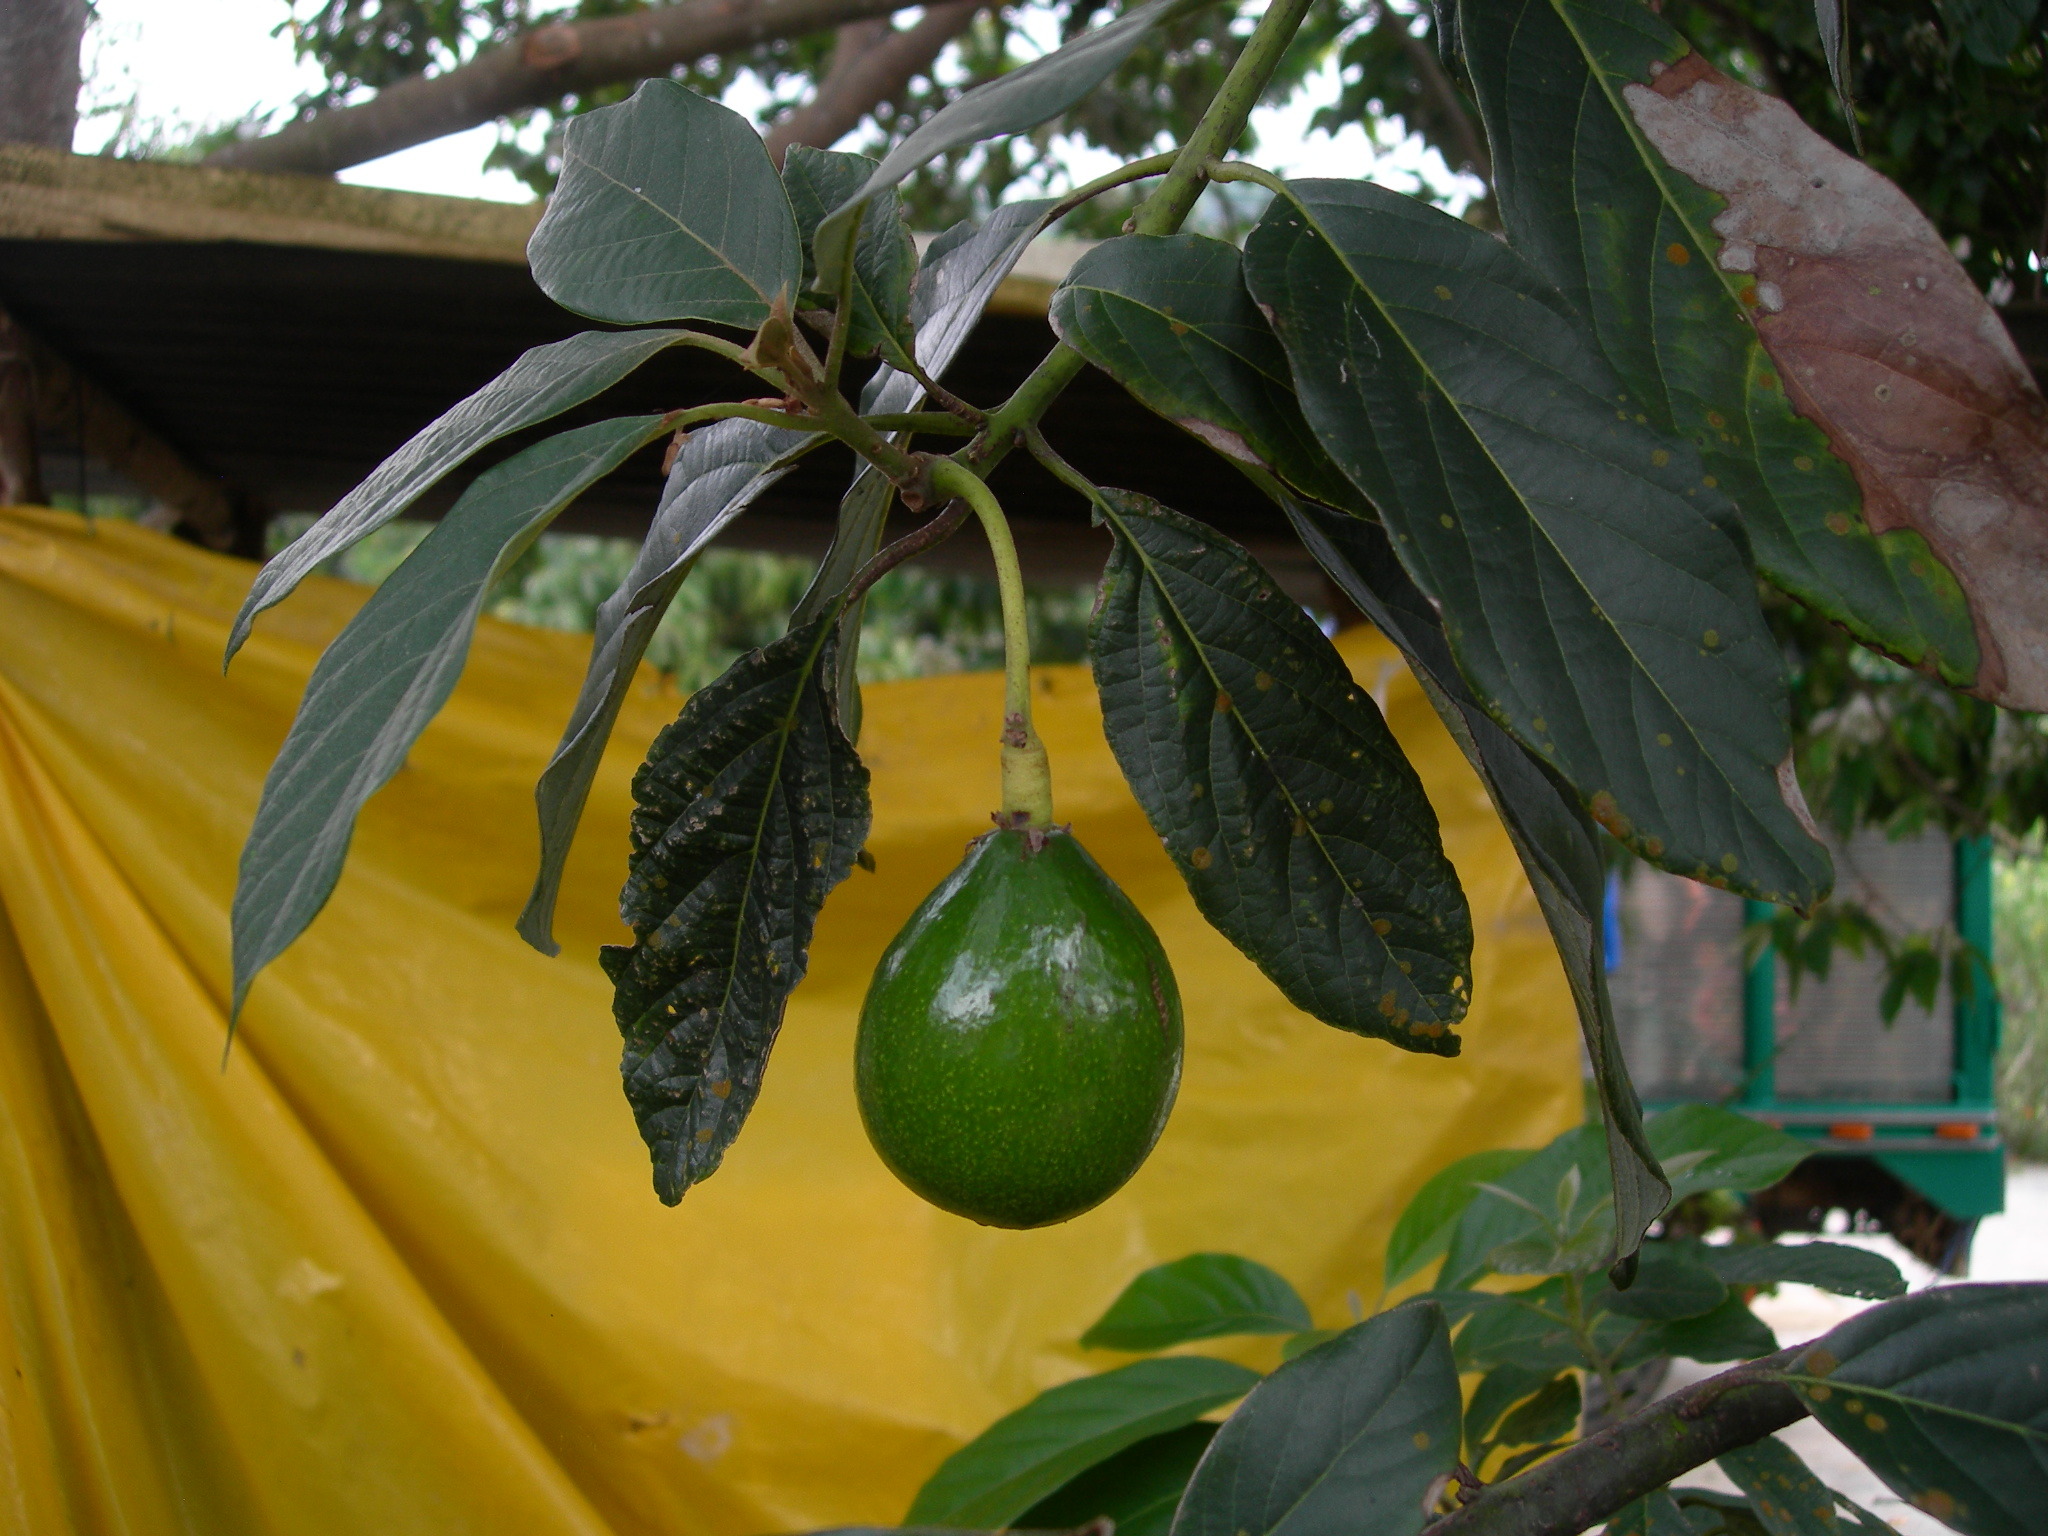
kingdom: Plantae
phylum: Tracheophyta
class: Magnoliopsida
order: Laurales
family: Lauraceae
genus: Persea
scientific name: Persea americana
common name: Avocado
